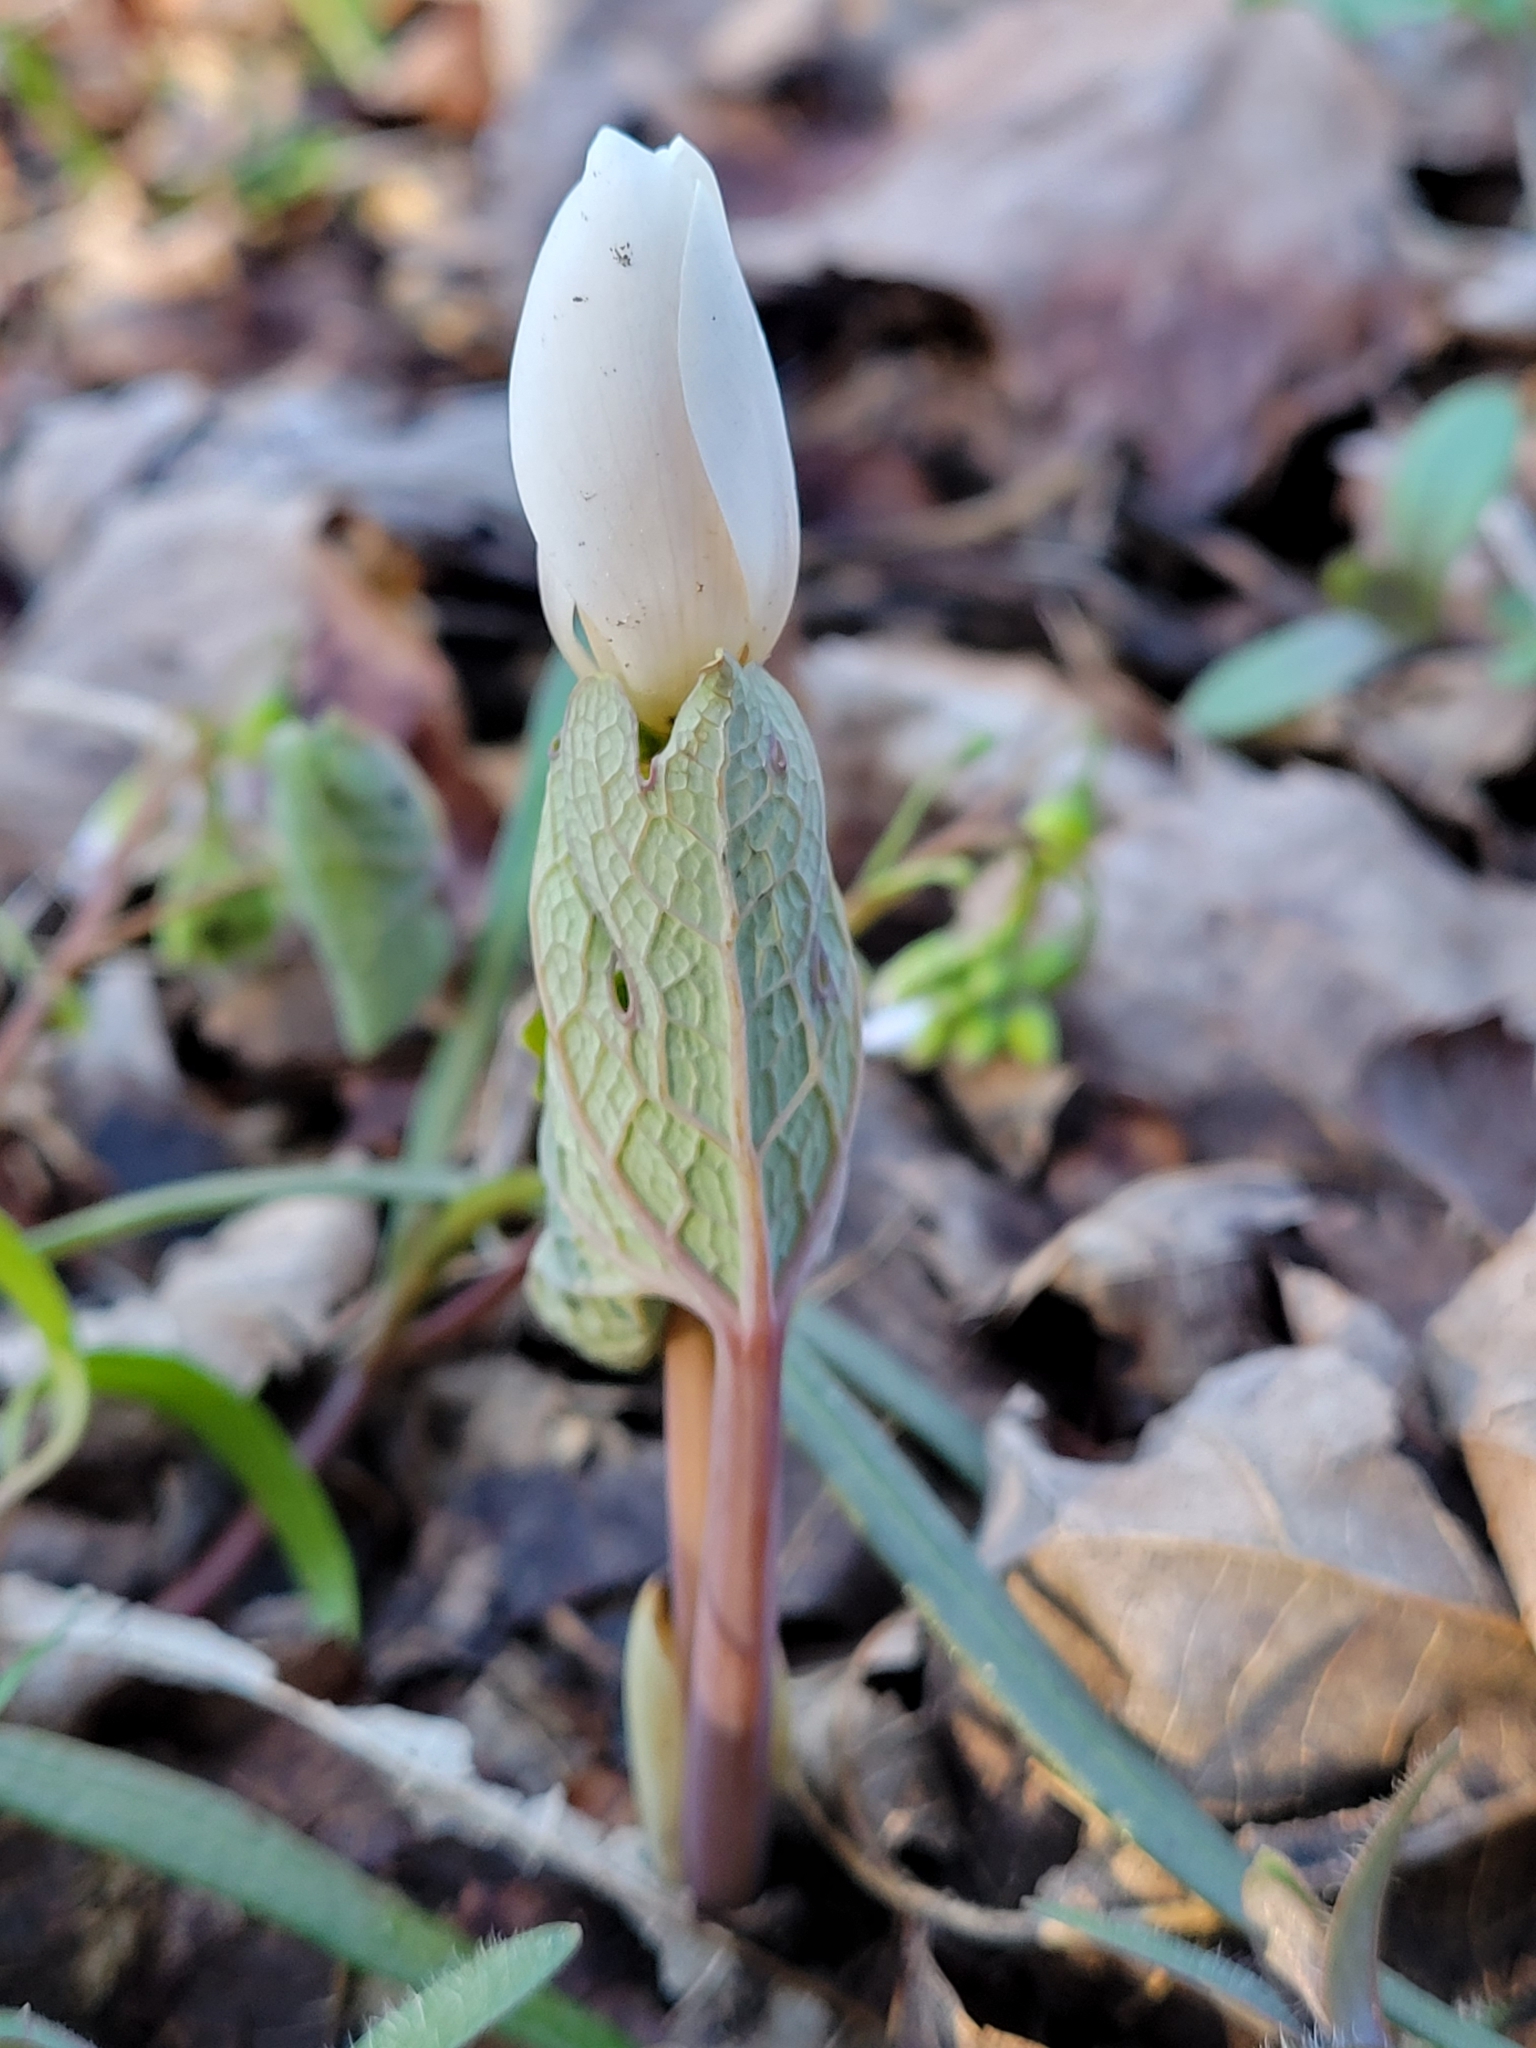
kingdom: Plantae
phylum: Tracheophyta
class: Magnoliopsida
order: Ranunculales
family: Papaveraceae
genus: Sanguinaria
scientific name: Sanguinaria canadensis
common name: Bloodroot
